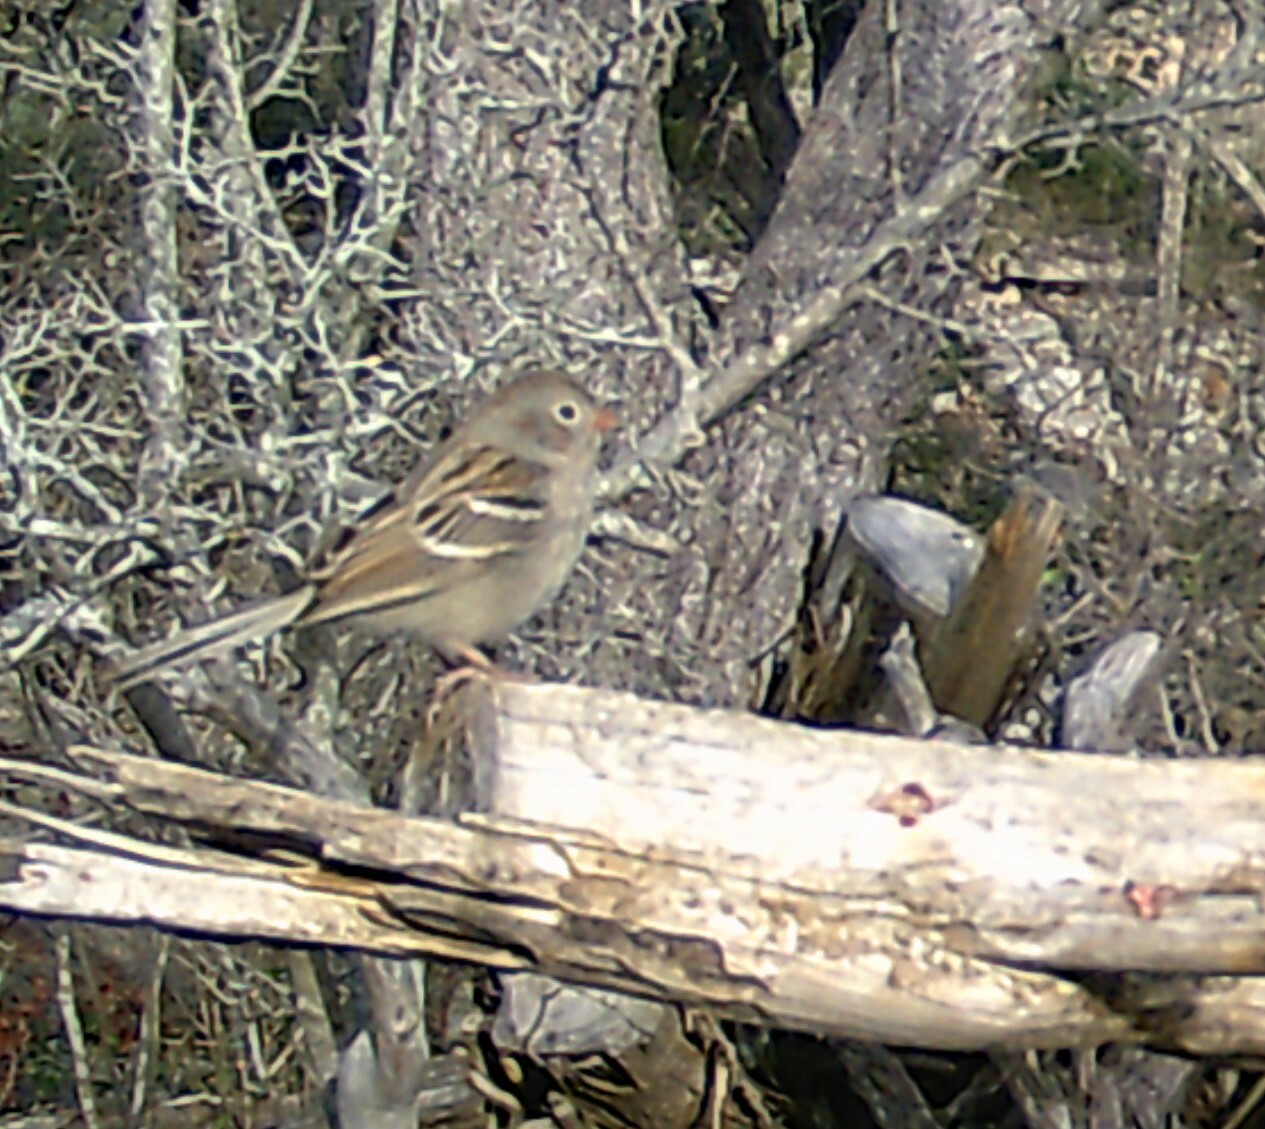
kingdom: Animalia
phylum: Chordata
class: Aves
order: Passeriformes
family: Passerellidae
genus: Spizella
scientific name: Spizella pusilla
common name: Field sparrow
